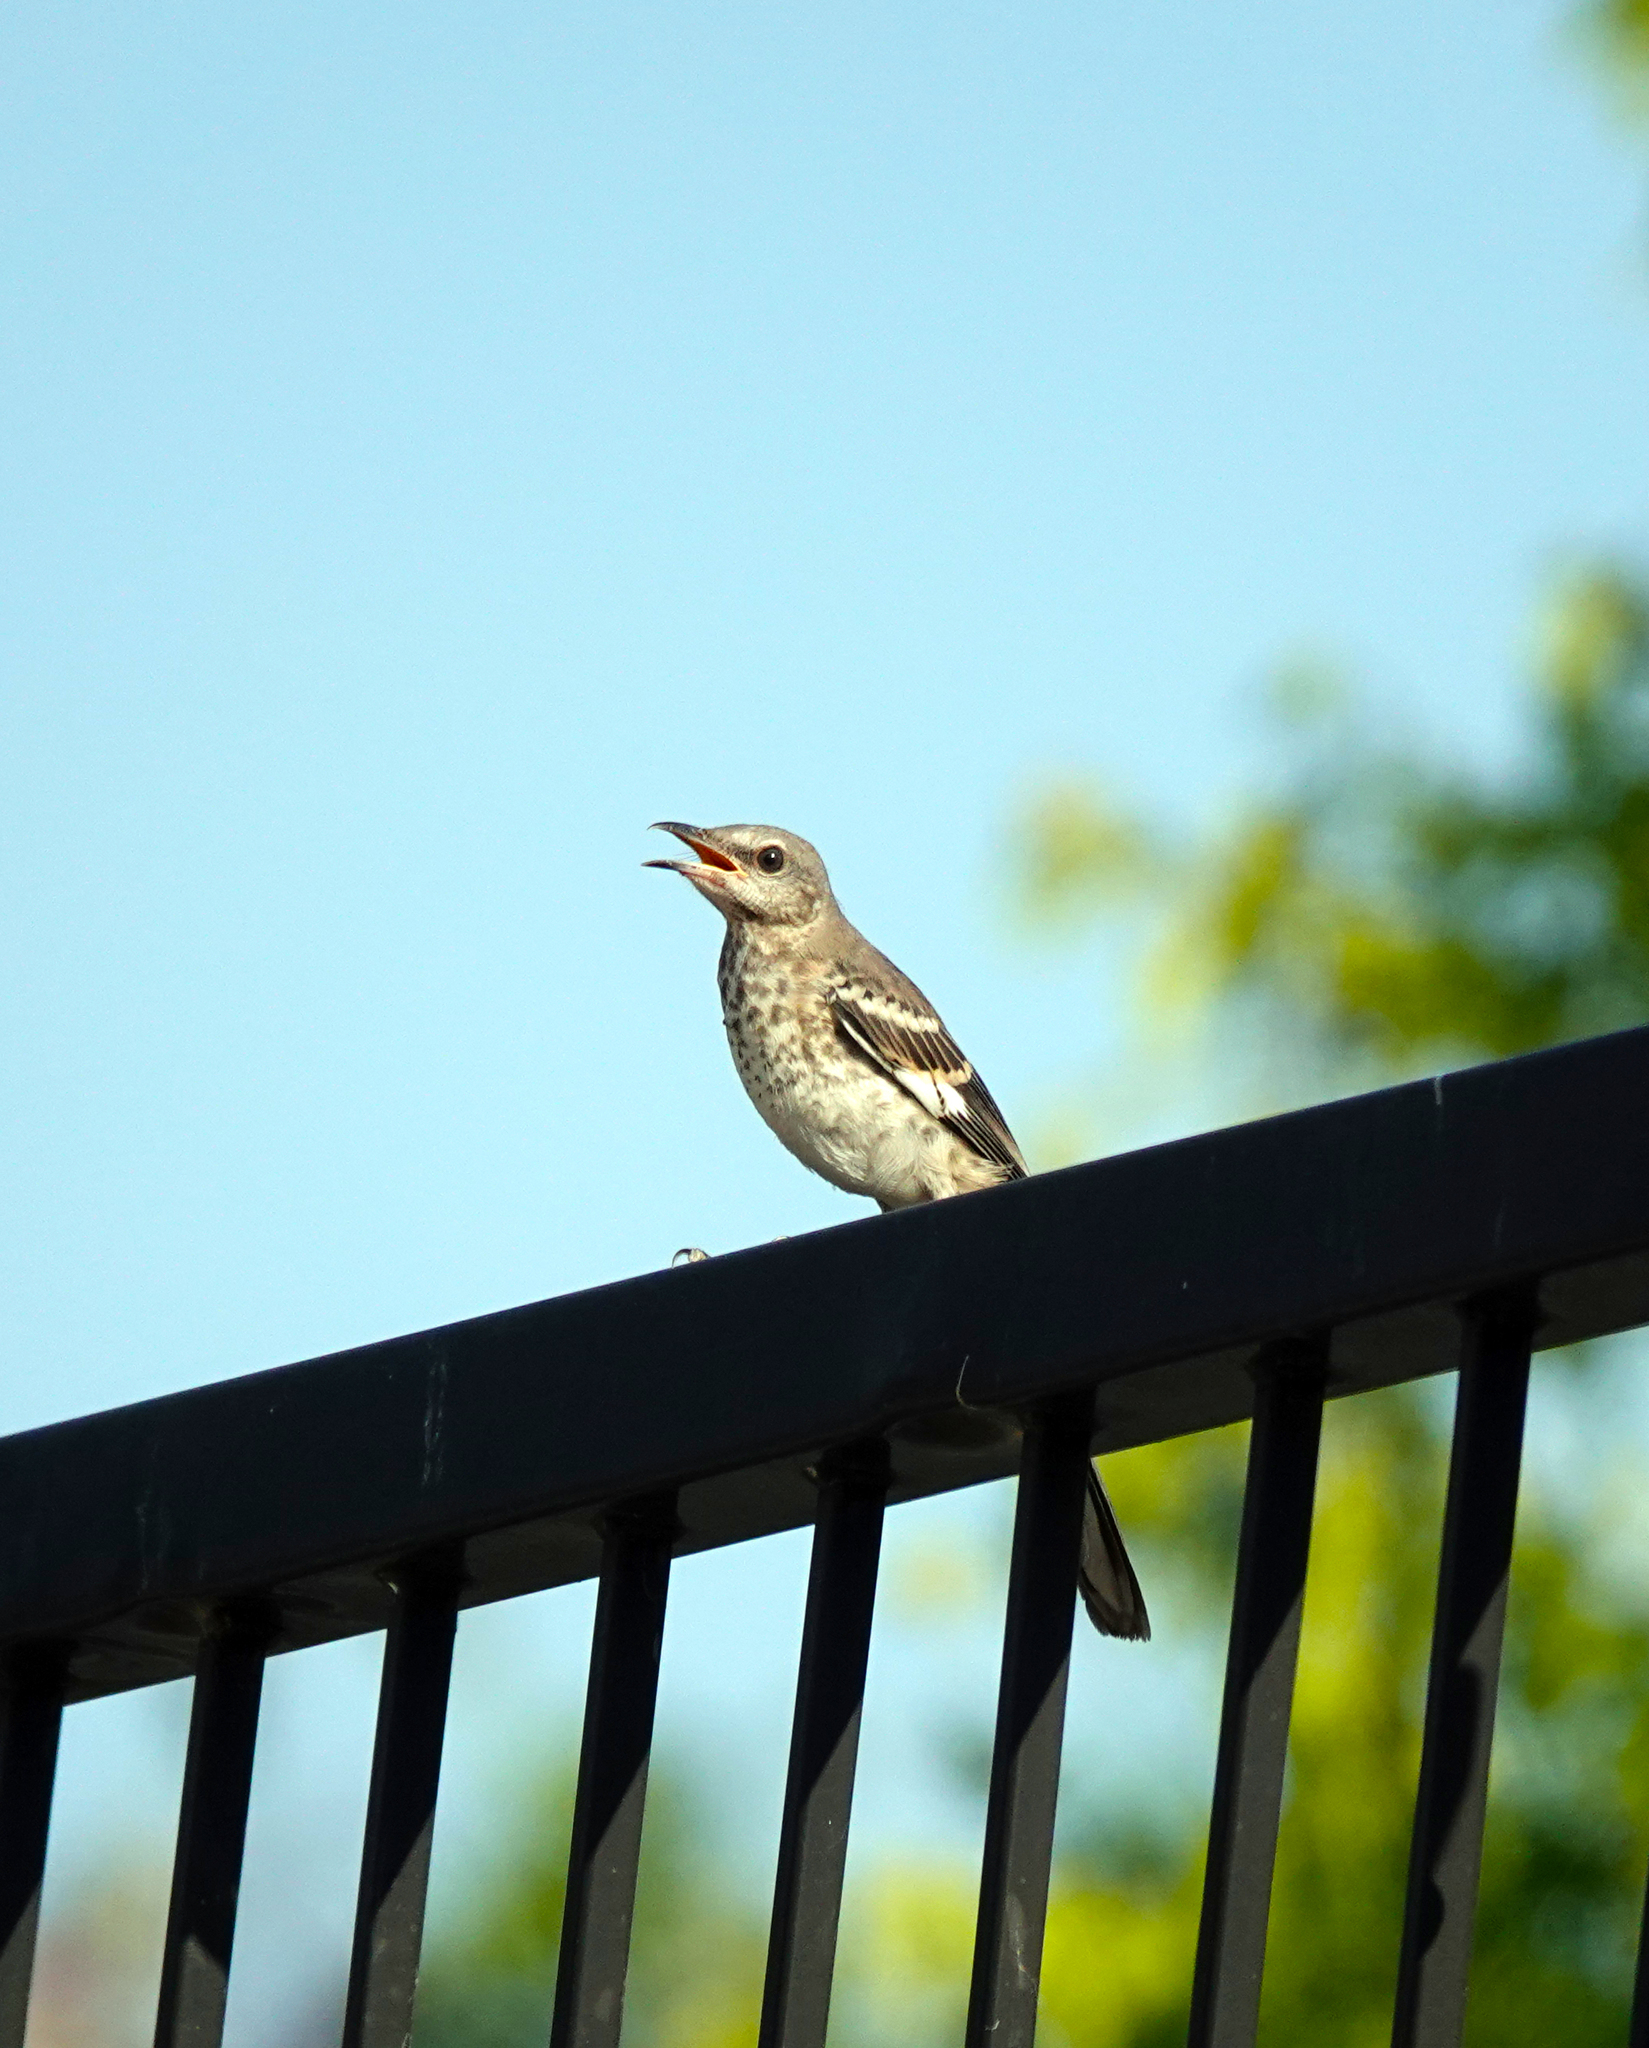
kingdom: Animalia
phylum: Chordata
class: Aves
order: Passeriformes
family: Mimidae
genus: Mimus
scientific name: Mimus polyglottos
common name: Northern mockingbird
